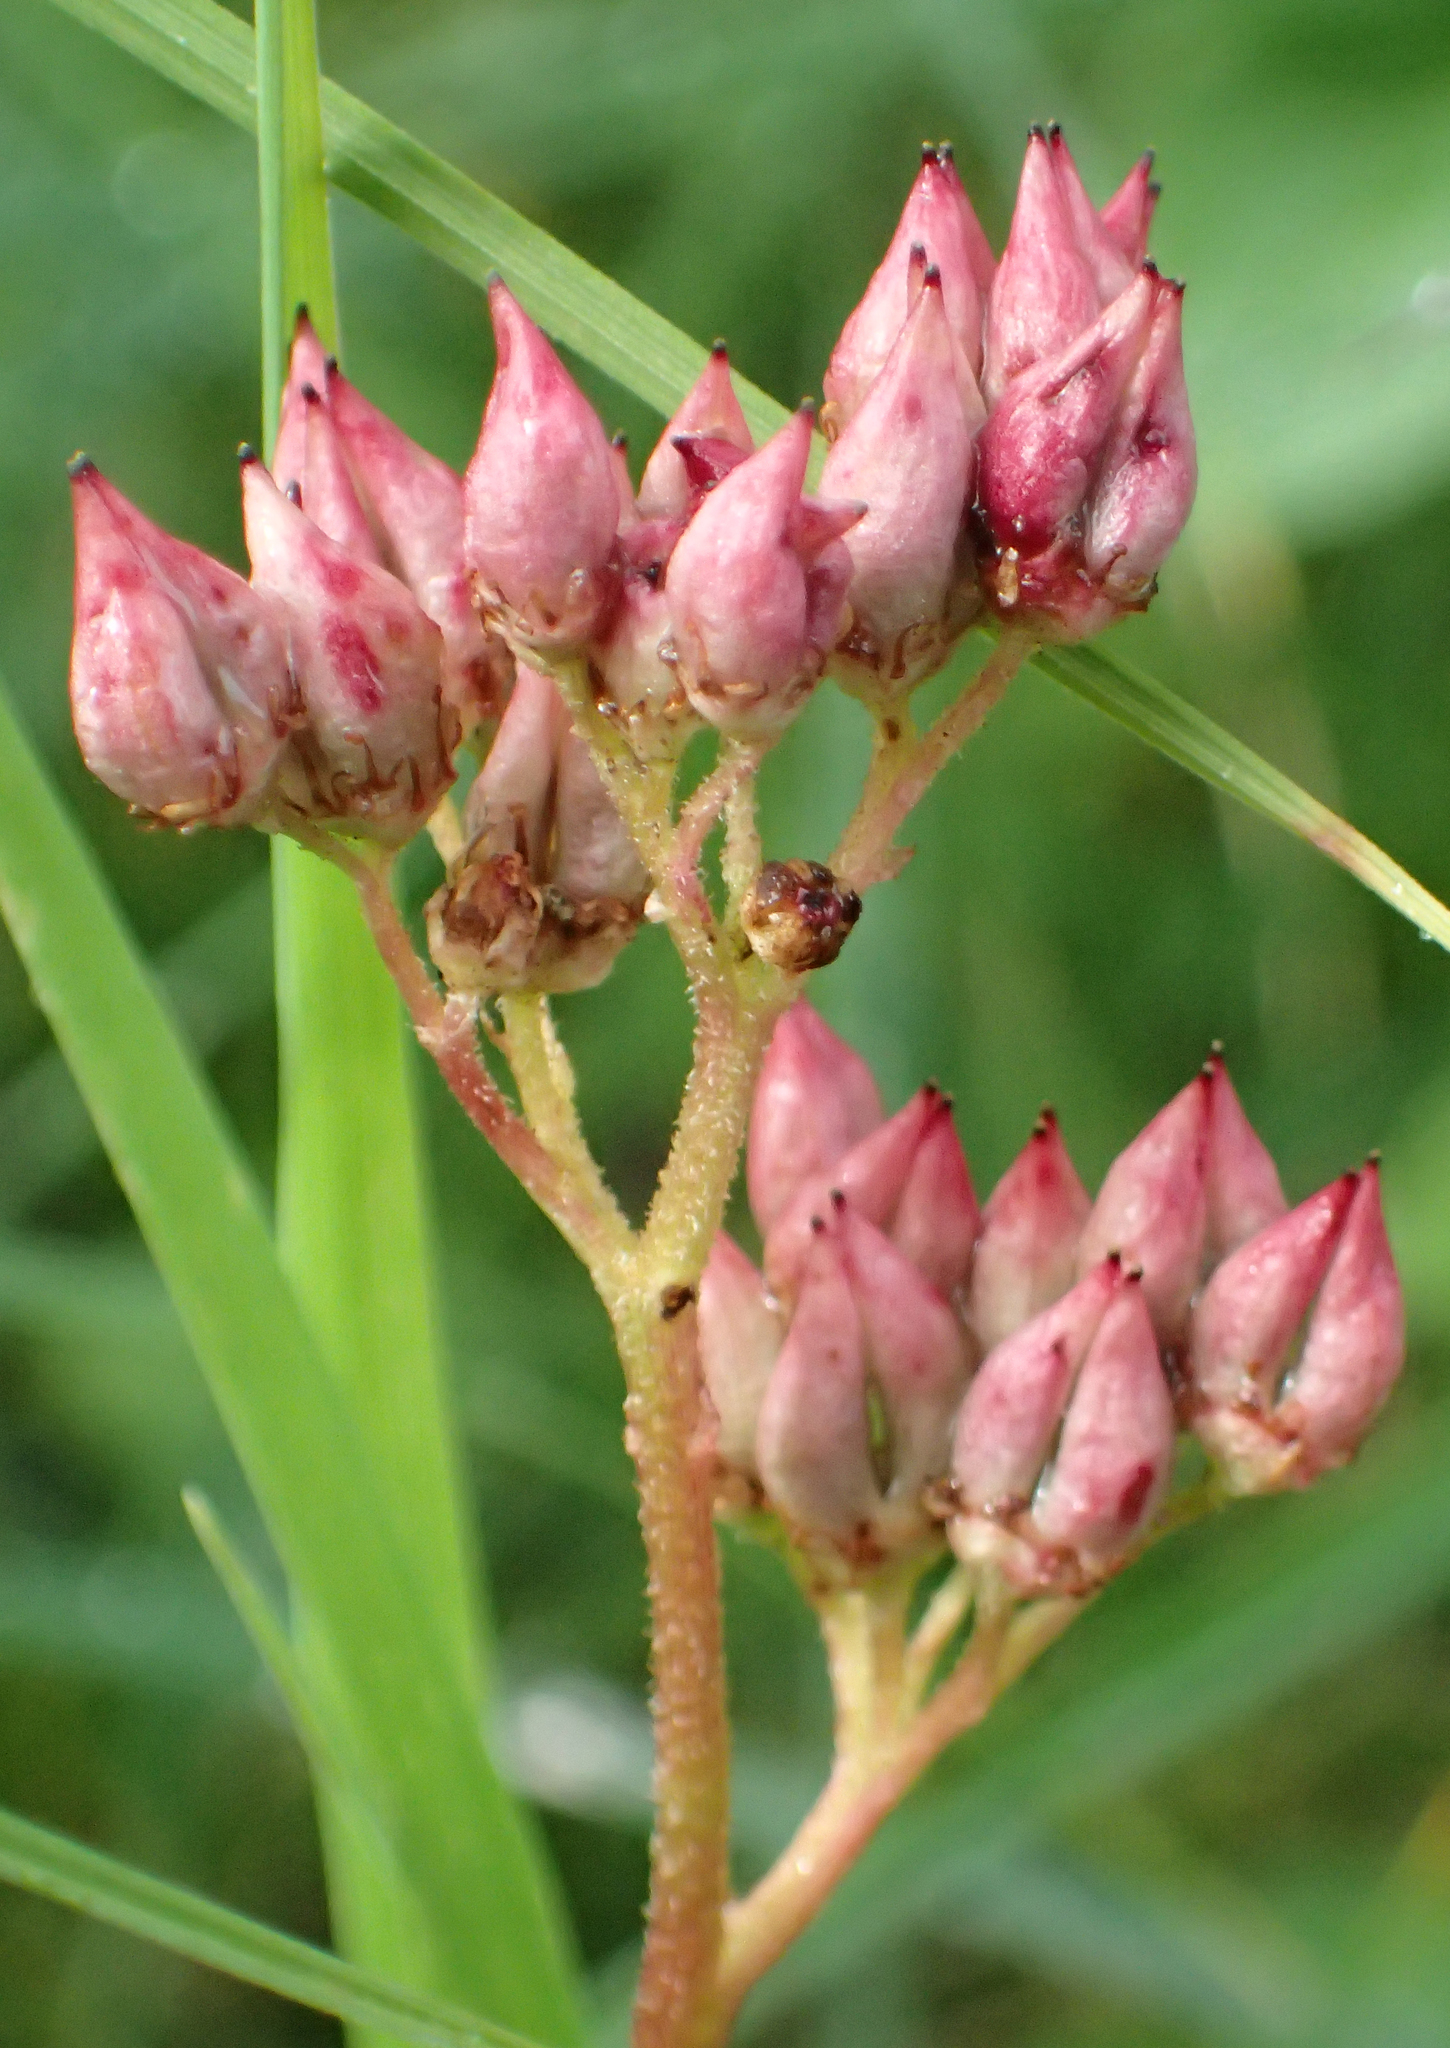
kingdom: Plantae
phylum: Tracheophyta
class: Magnoliopsida
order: Saxifragales
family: Saxifragaceae
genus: Leptarrhena
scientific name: Leptarrhena pyrolifolia
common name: Leatherleaf-saxifrage
